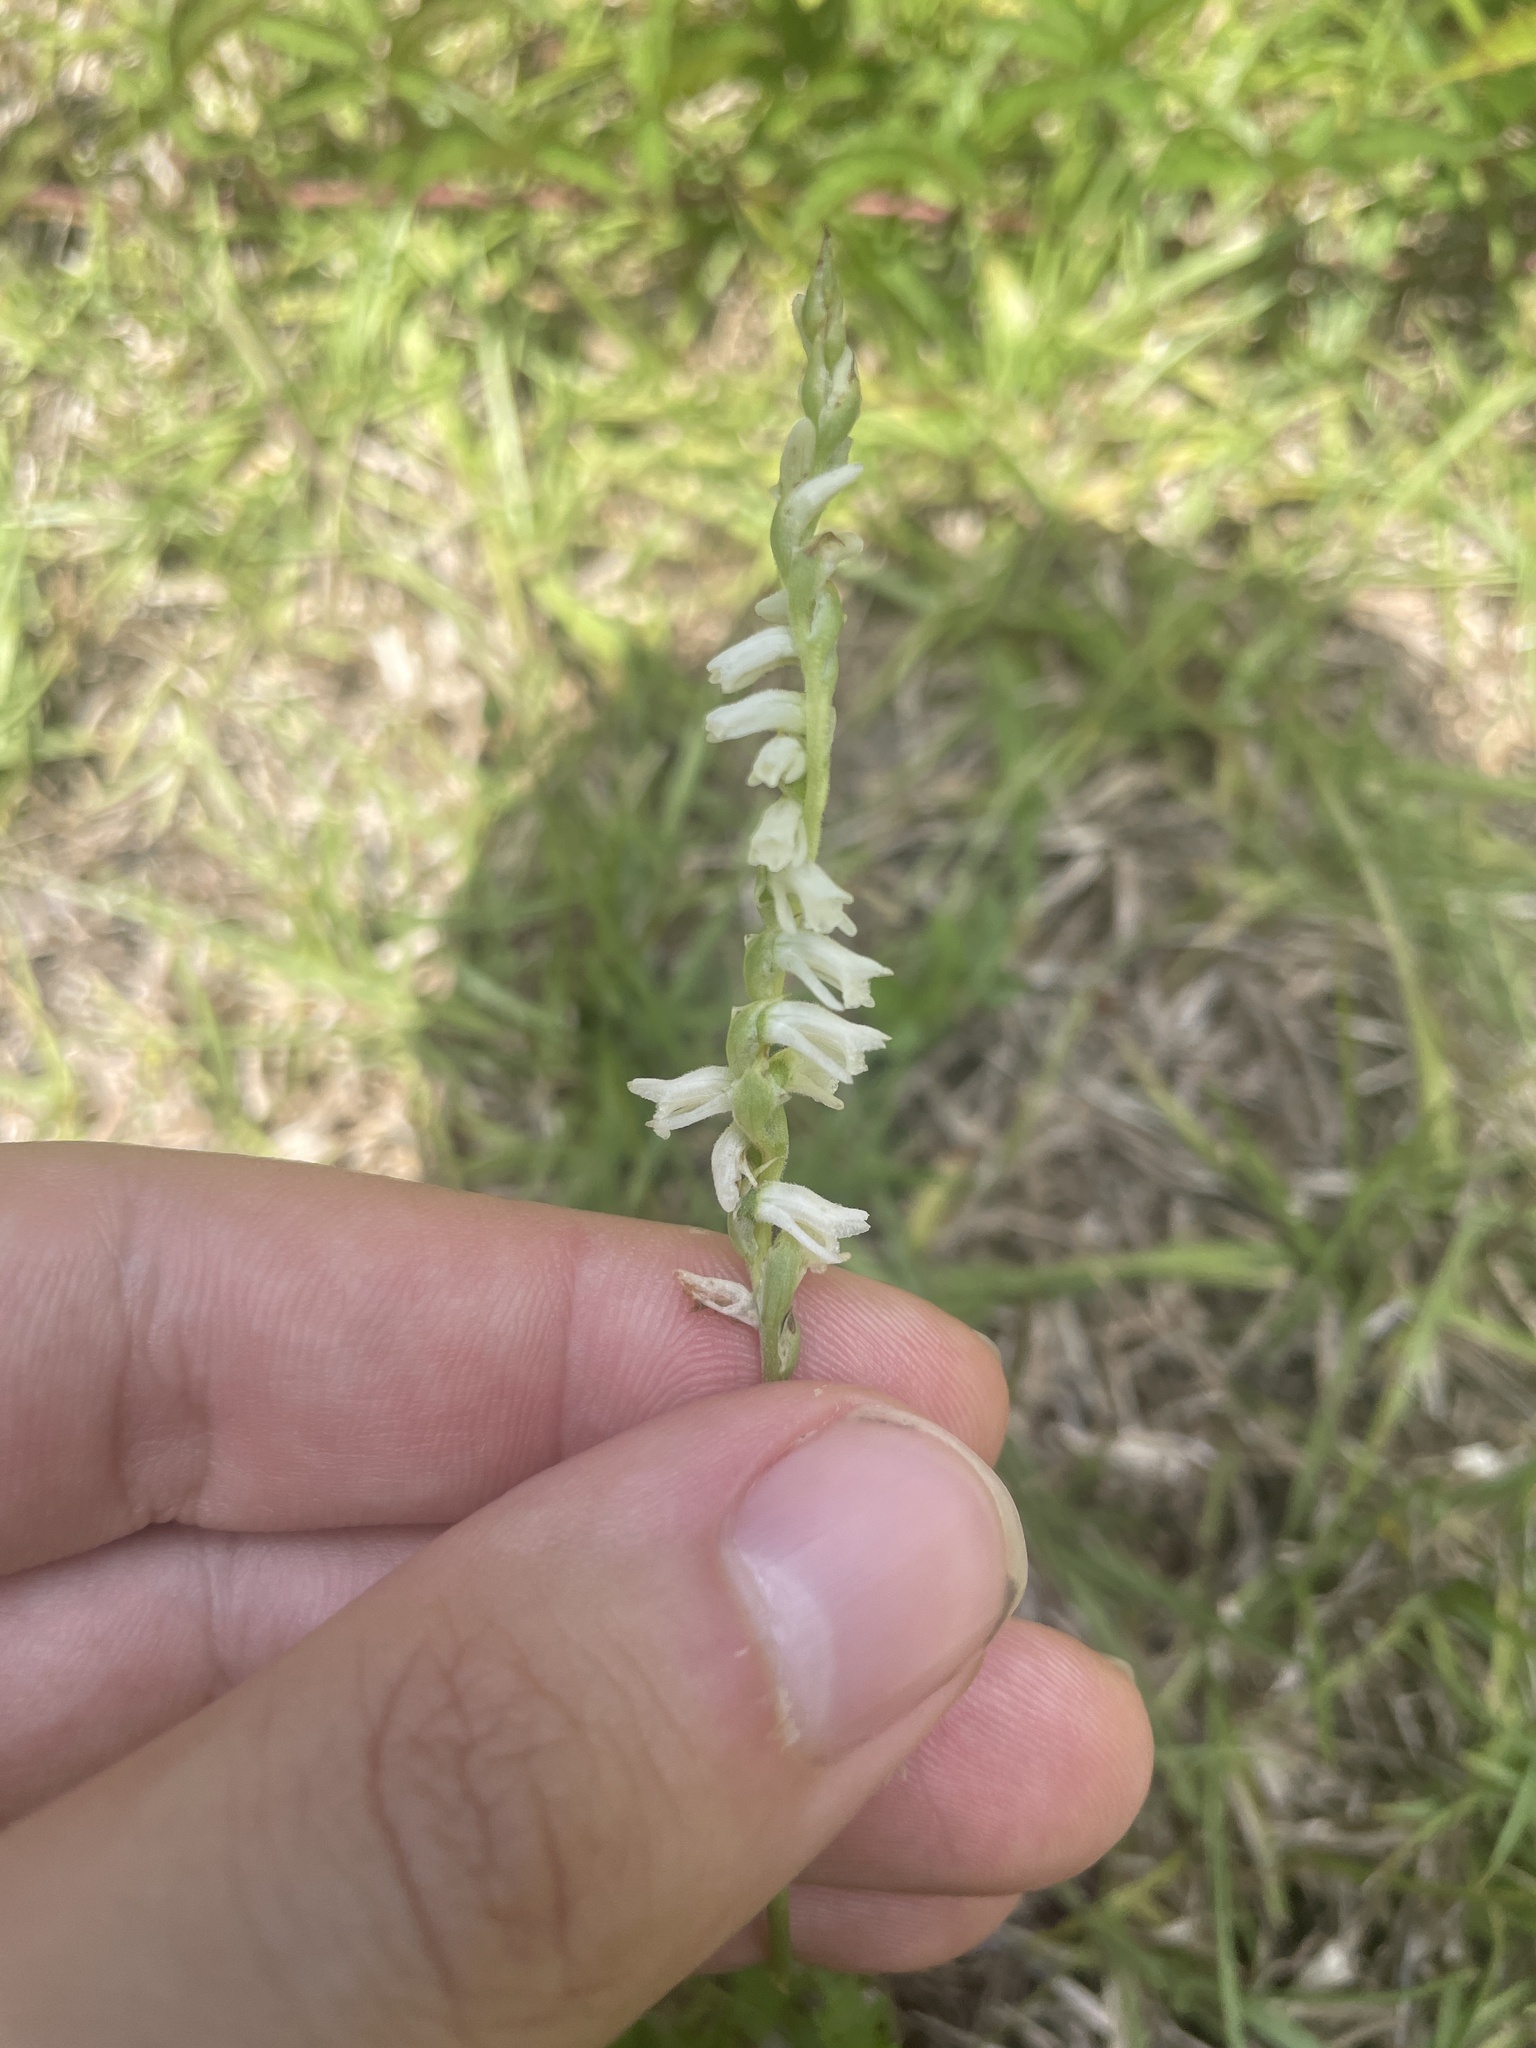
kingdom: Plantae
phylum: Tracheophyta
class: Liliopsida
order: Asparagales
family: Orchidaceae
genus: Spiranthes
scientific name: Spiranthes vernalis
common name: Spring ladies'-tresses
